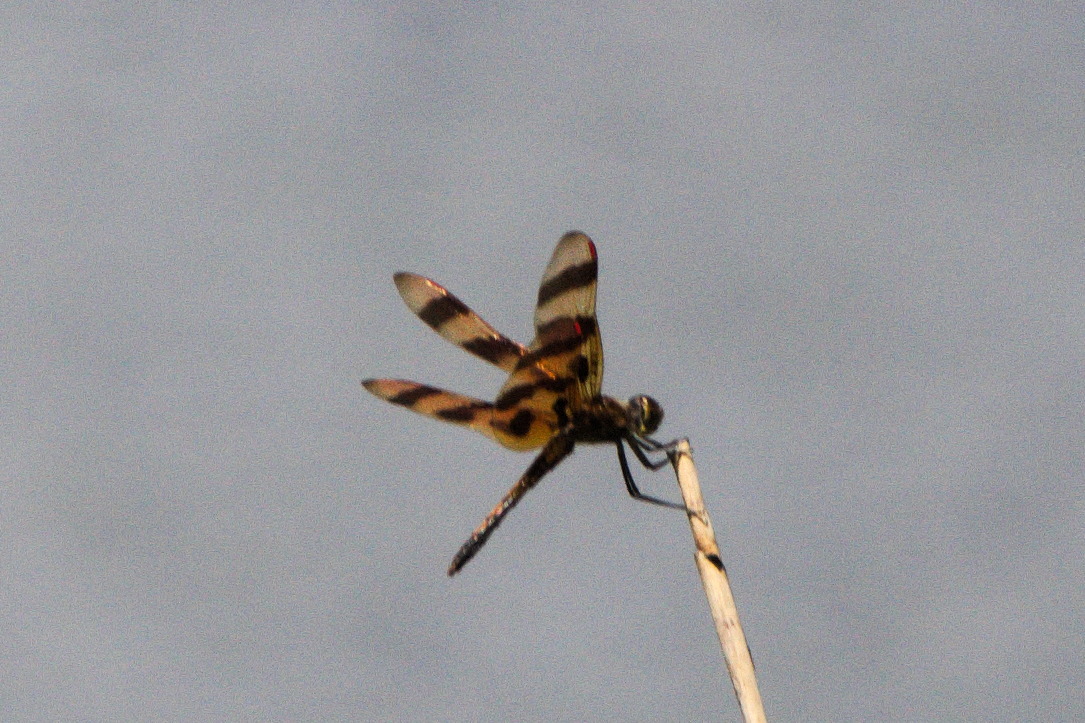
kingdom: Animalia
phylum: Arthropoda
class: Insecta
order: Odonata
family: Libellulidae
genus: Celithemis
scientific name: Celithemis eponina
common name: Halloween pennant
